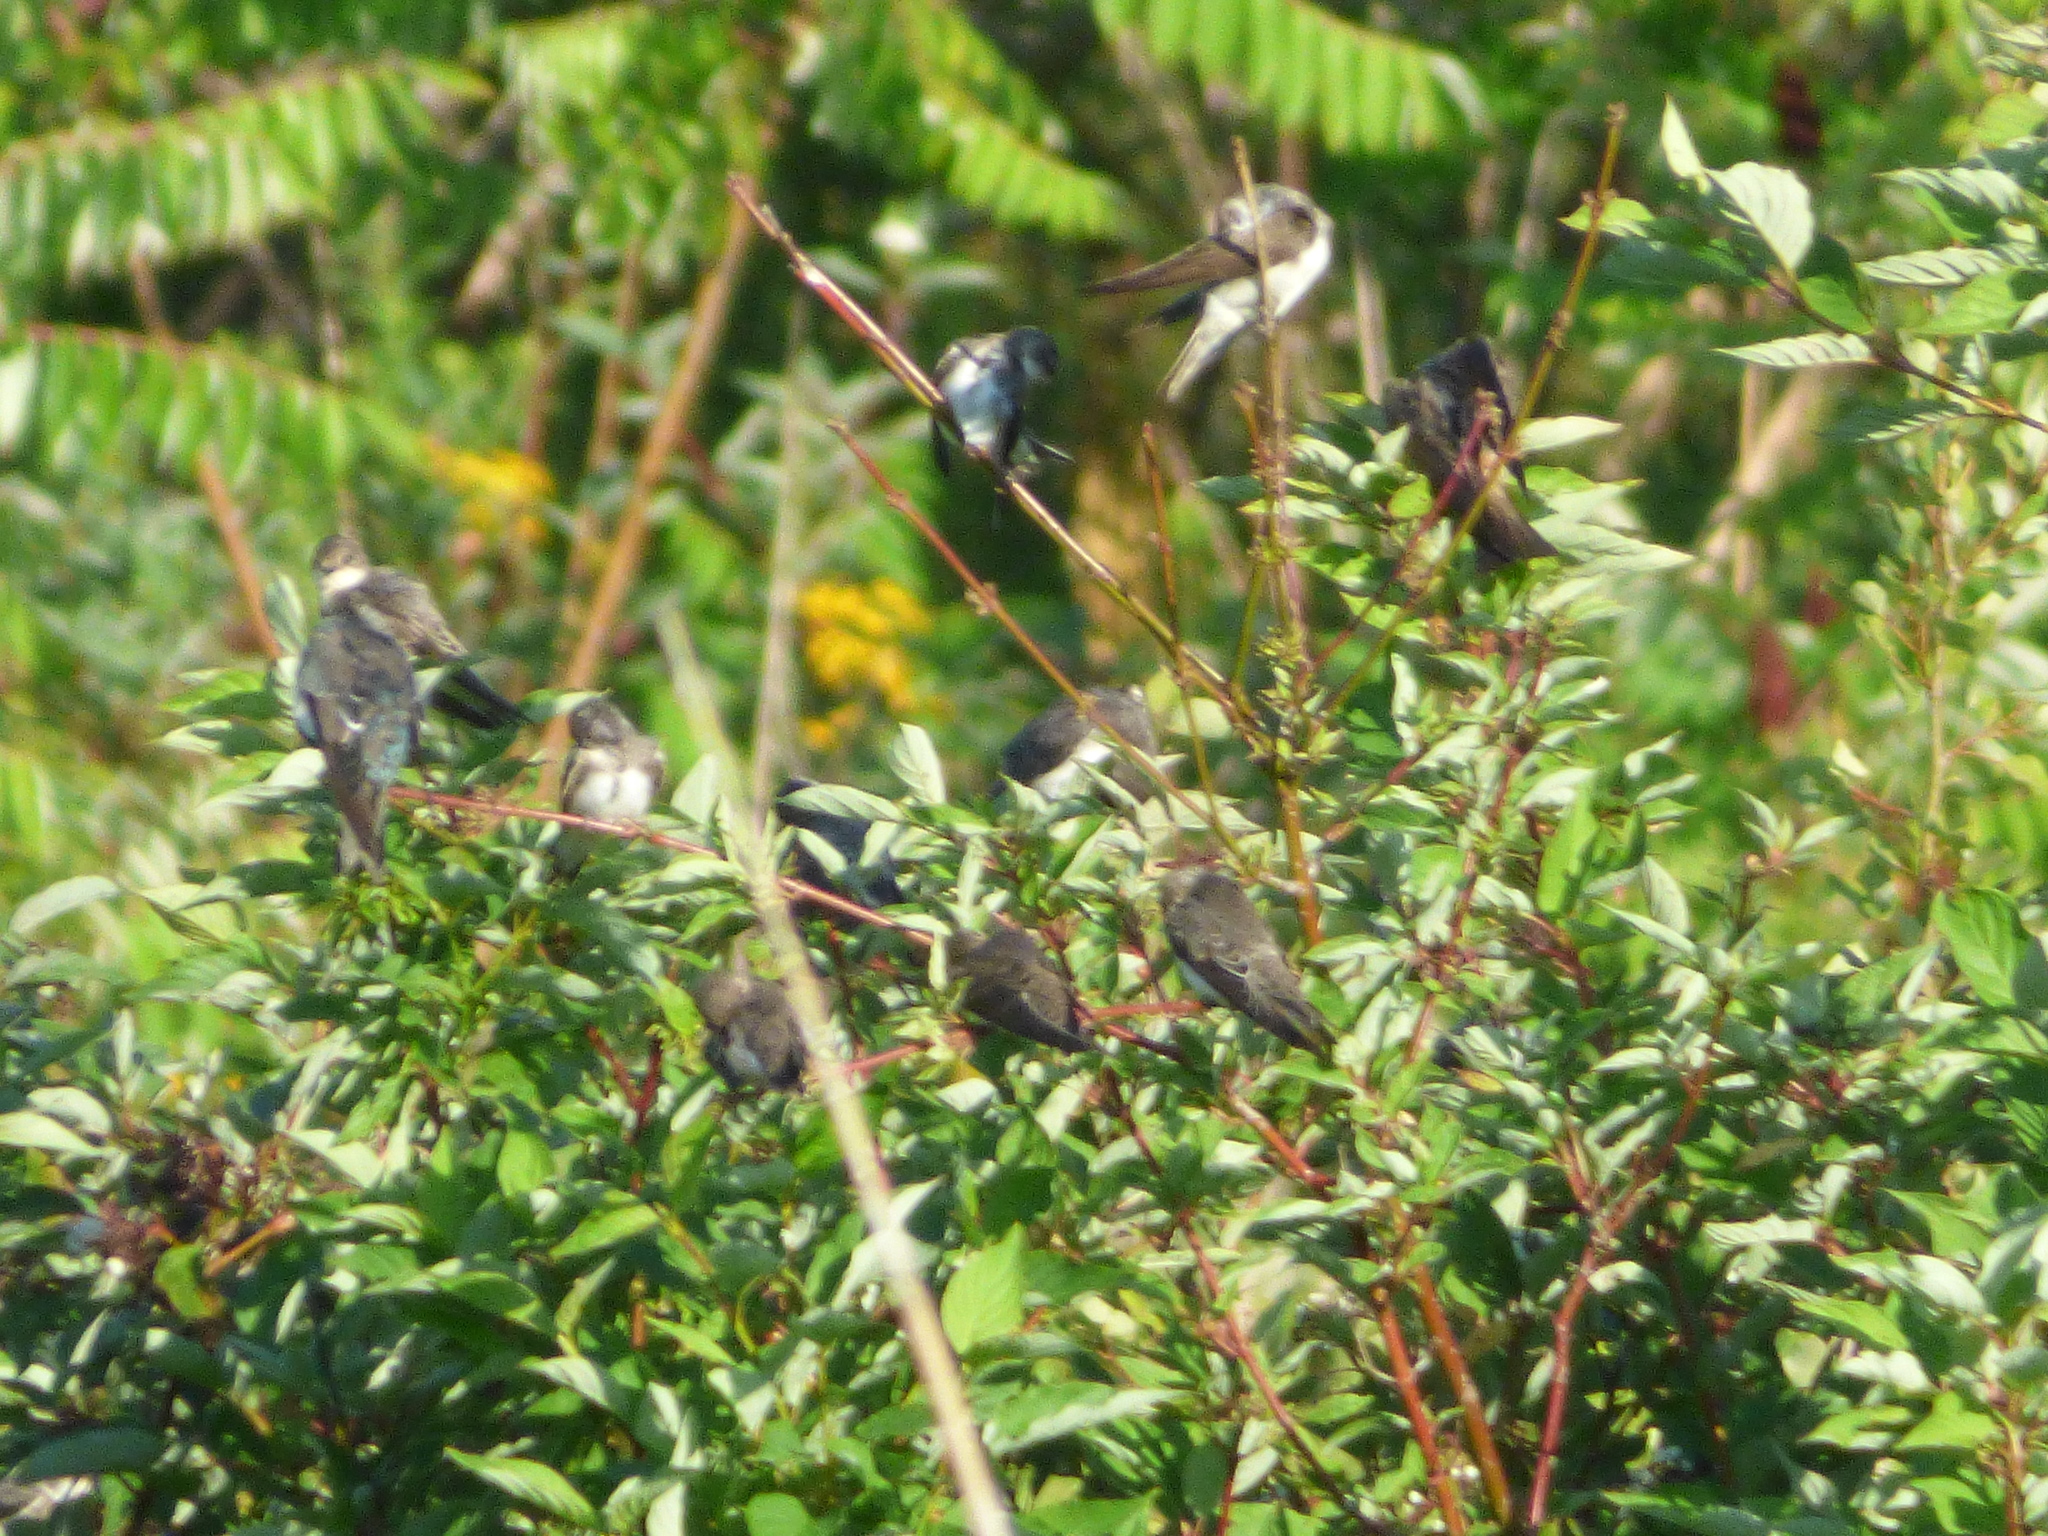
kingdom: Animalia
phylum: Chordata
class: Aves
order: Passeriformes
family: Hirundinidae
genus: Tachycineta
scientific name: Tachycineta bicolor
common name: Tree swallow
